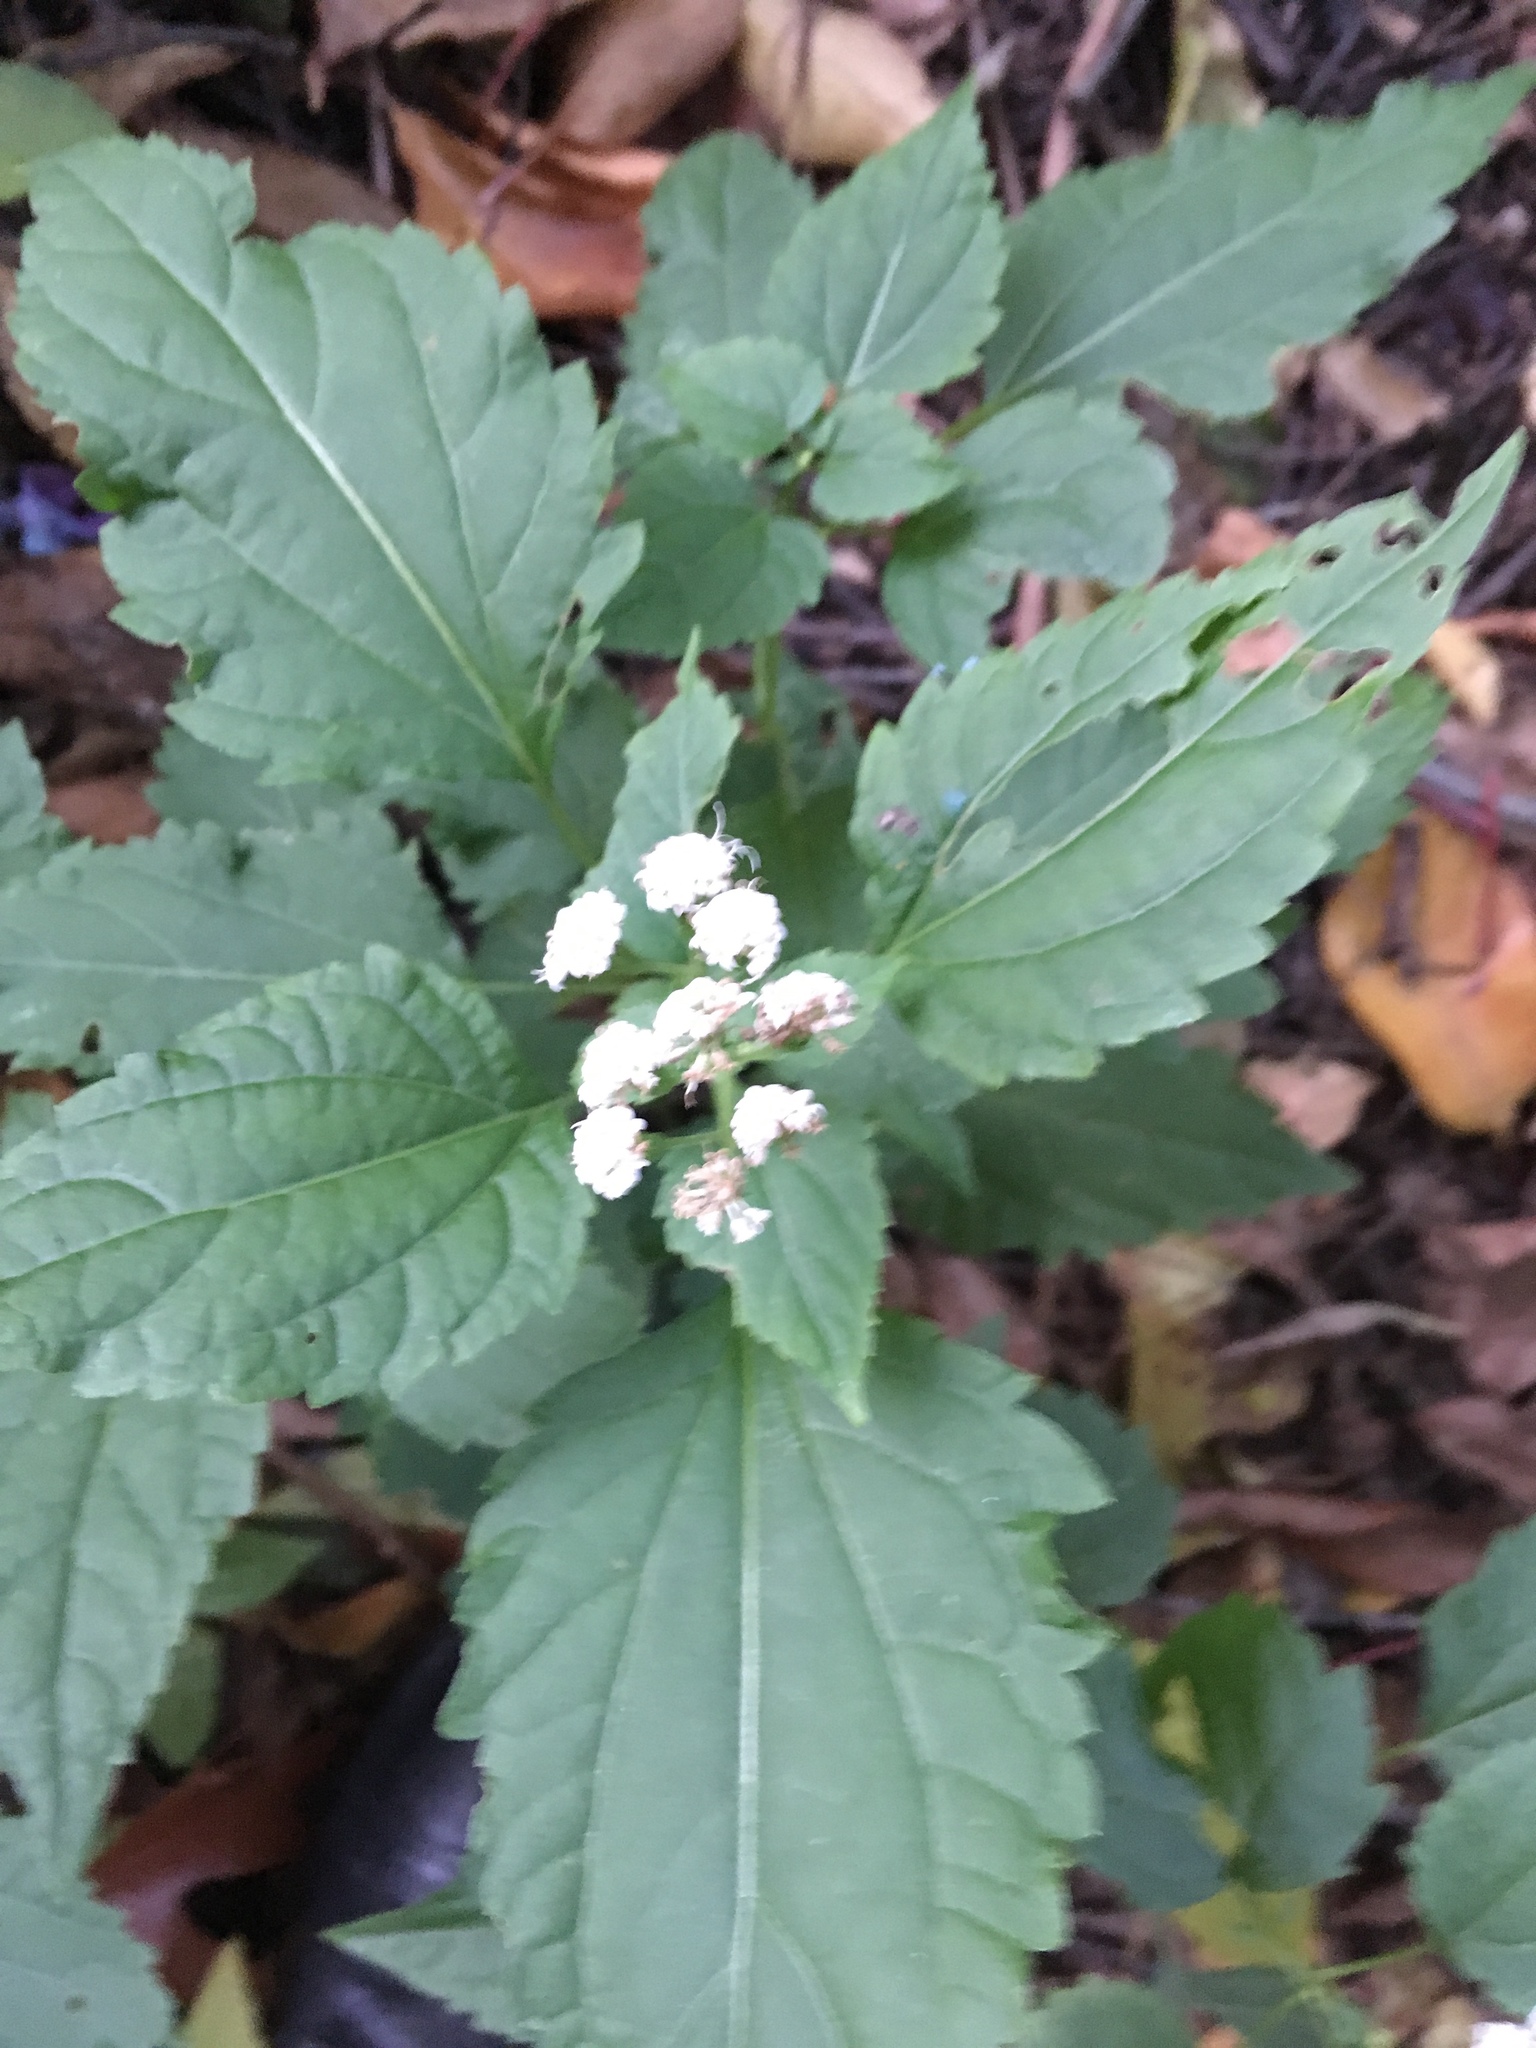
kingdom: Plantae
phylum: Tracheophyta
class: Magnoliopsida
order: Asterales
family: Asteraceae
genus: Ageratina
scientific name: Ageratina altissima
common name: White snakeroot
